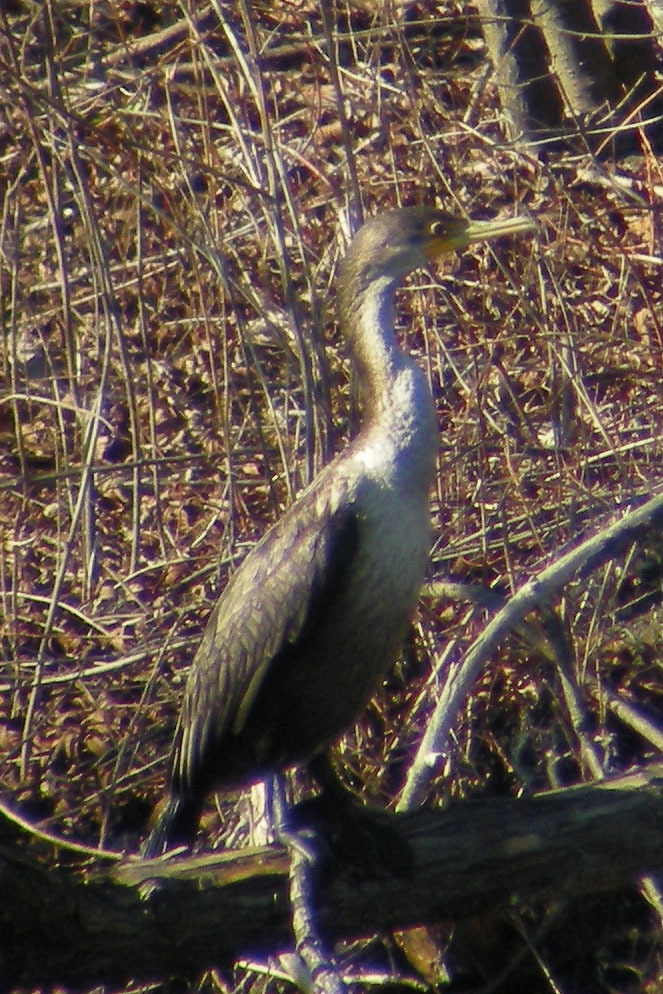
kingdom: Animalia
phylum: Chordata
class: Aves
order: Suliformes
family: Phalacrocoracidae
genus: Phalacrocorax
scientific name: Phalacrocorax auritus
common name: Double-crested cormorant
